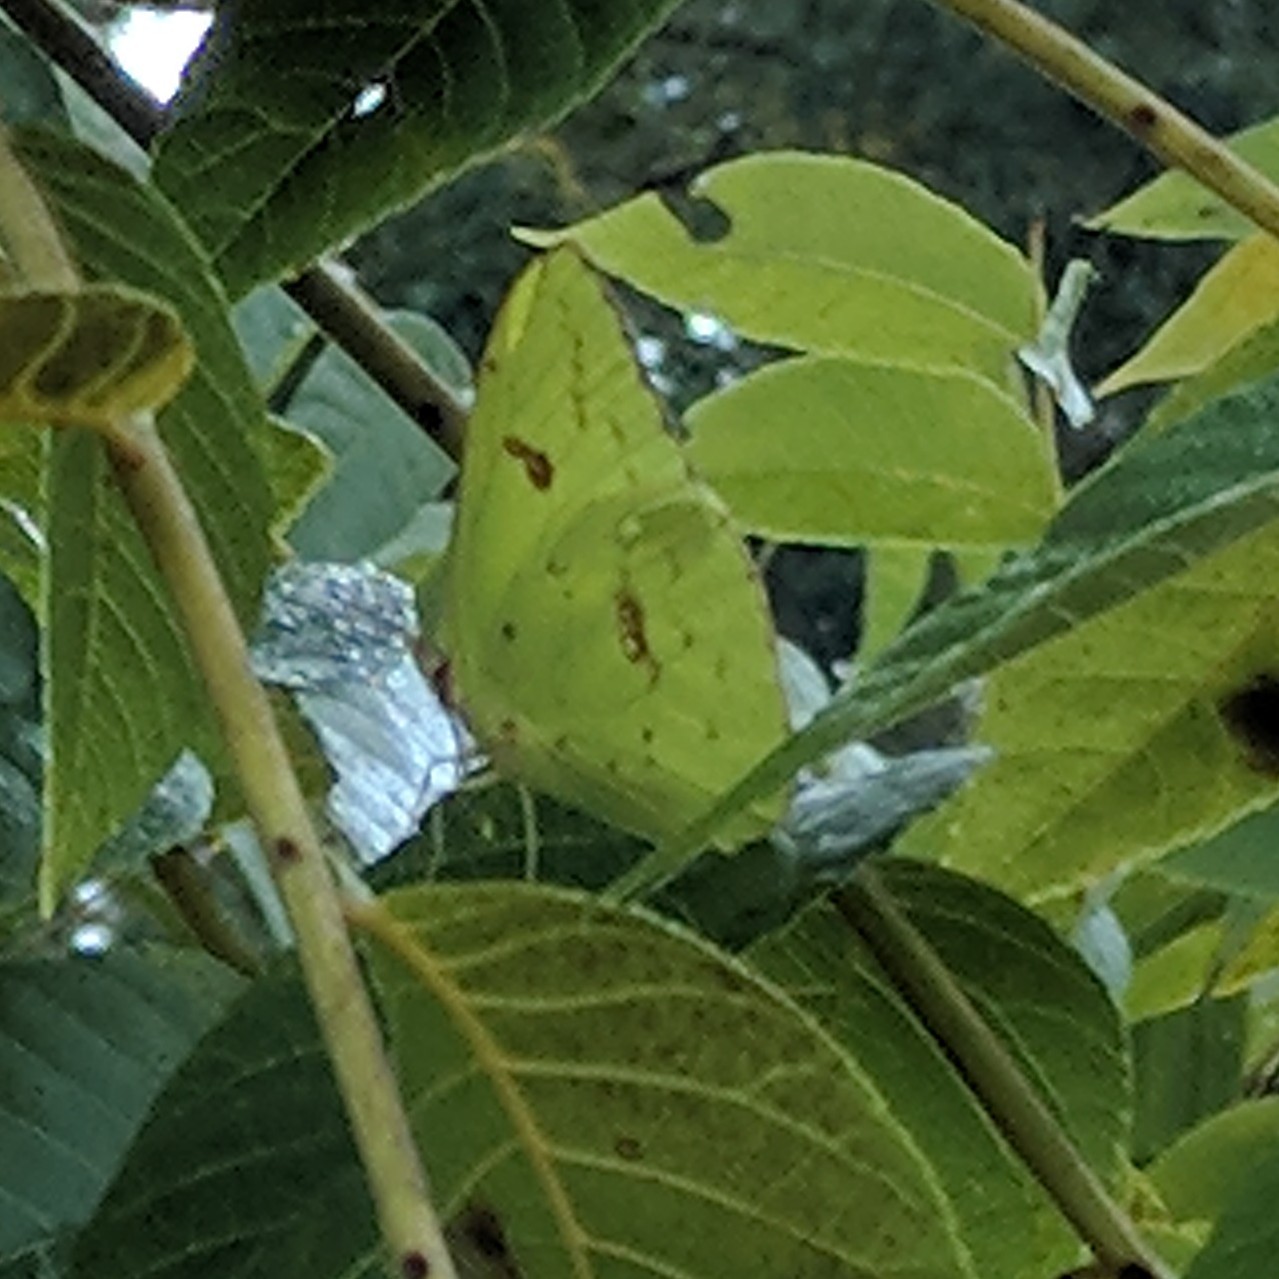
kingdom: Animalia
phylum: Arthropoda
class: Insecta
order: Lepidoptera
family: Pieridae
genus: Phoebis
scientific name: Phoebis sennae
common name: Cloudless sulphur
